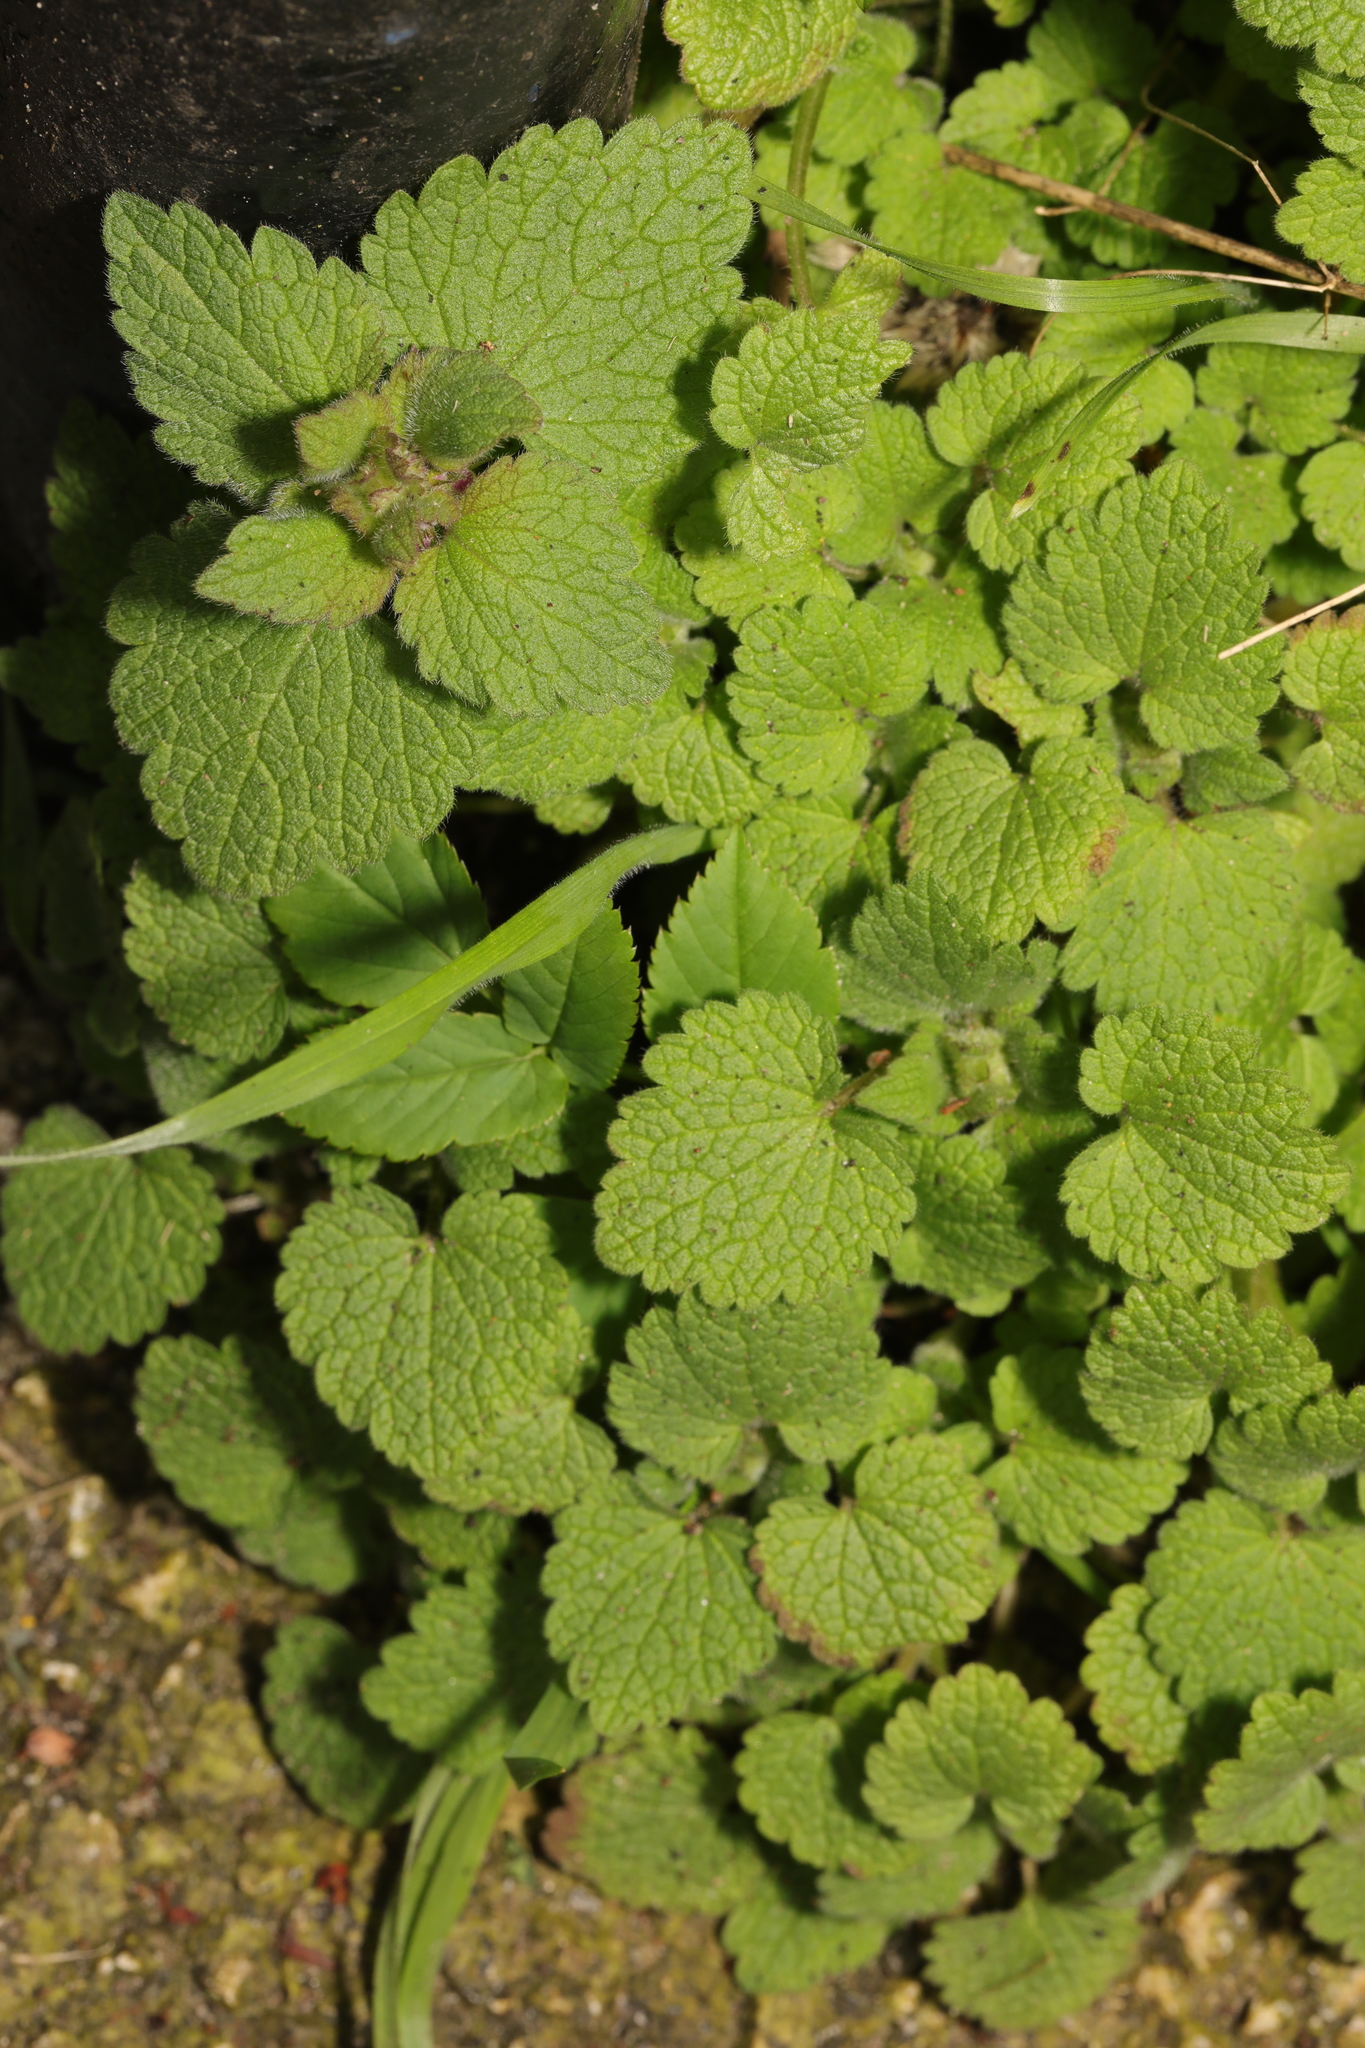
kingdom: Plantae
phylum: Tracheophyta
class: Magnoliopsida
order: Lamiales
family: Lamiaceae
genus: Lamium
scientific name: Lamium purpureum
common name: Red dead-nettle
